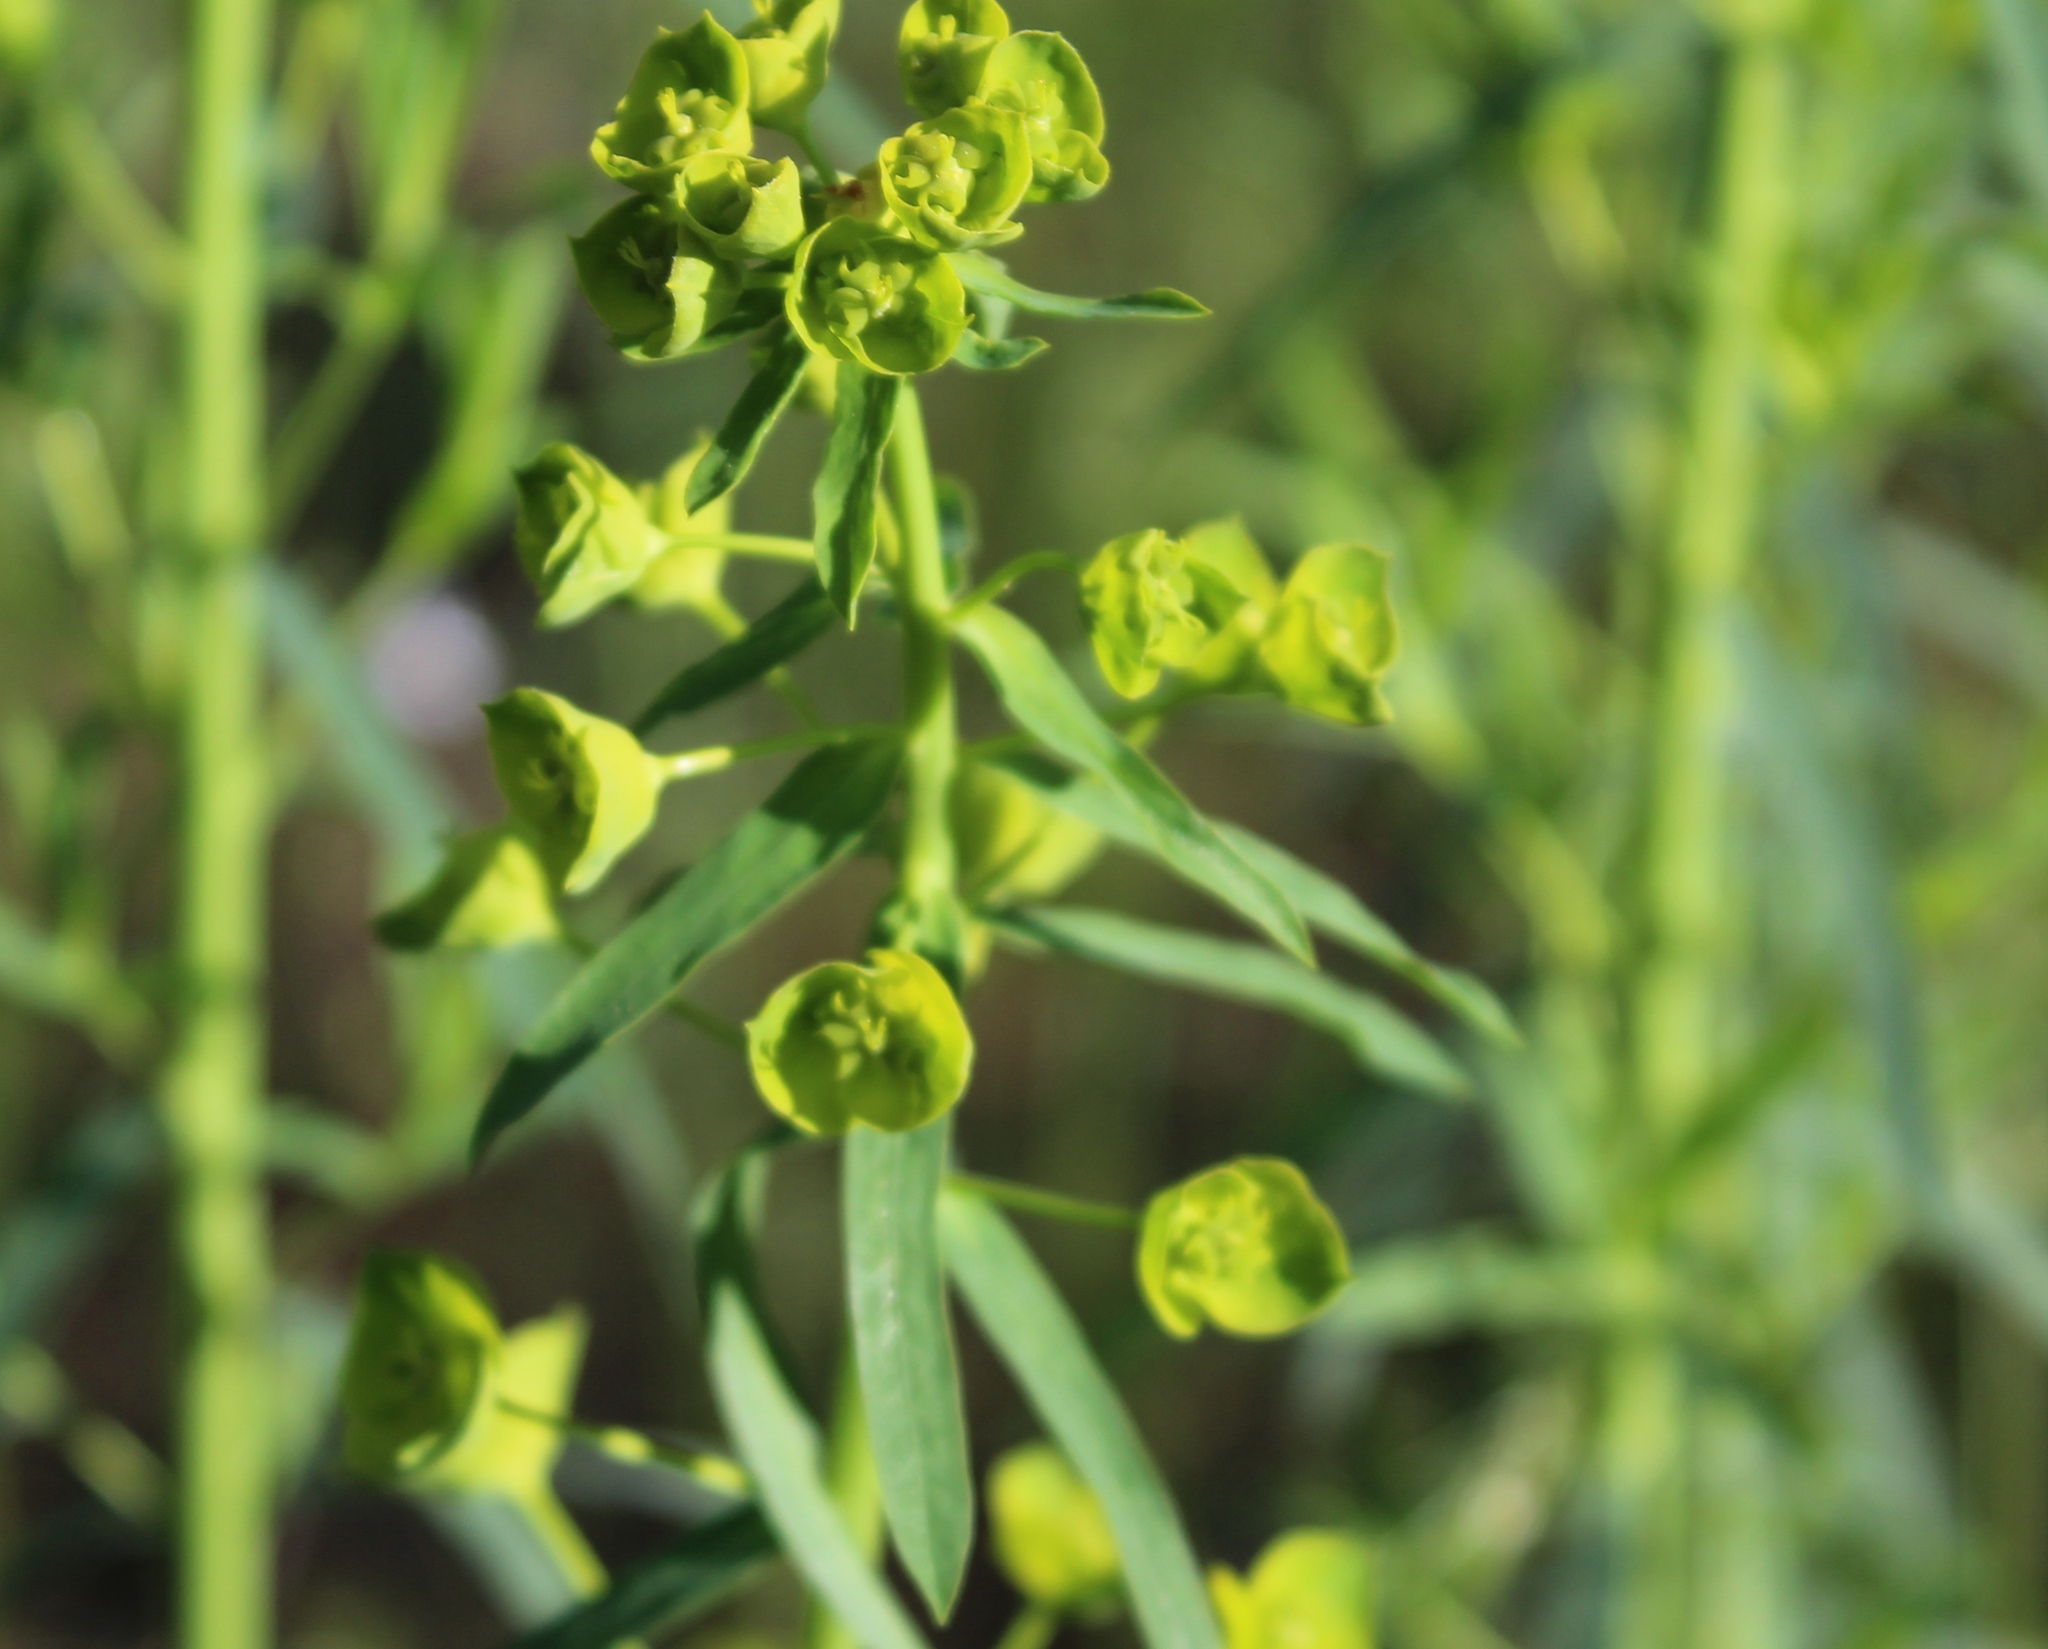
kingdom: Plantae
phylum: Tracheophyta
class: Magnoliopsida
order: Malpighiales
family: Euphorbiaceae
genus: Euphorbia
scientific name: Euphorbia virgata
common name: Leafy spurge
